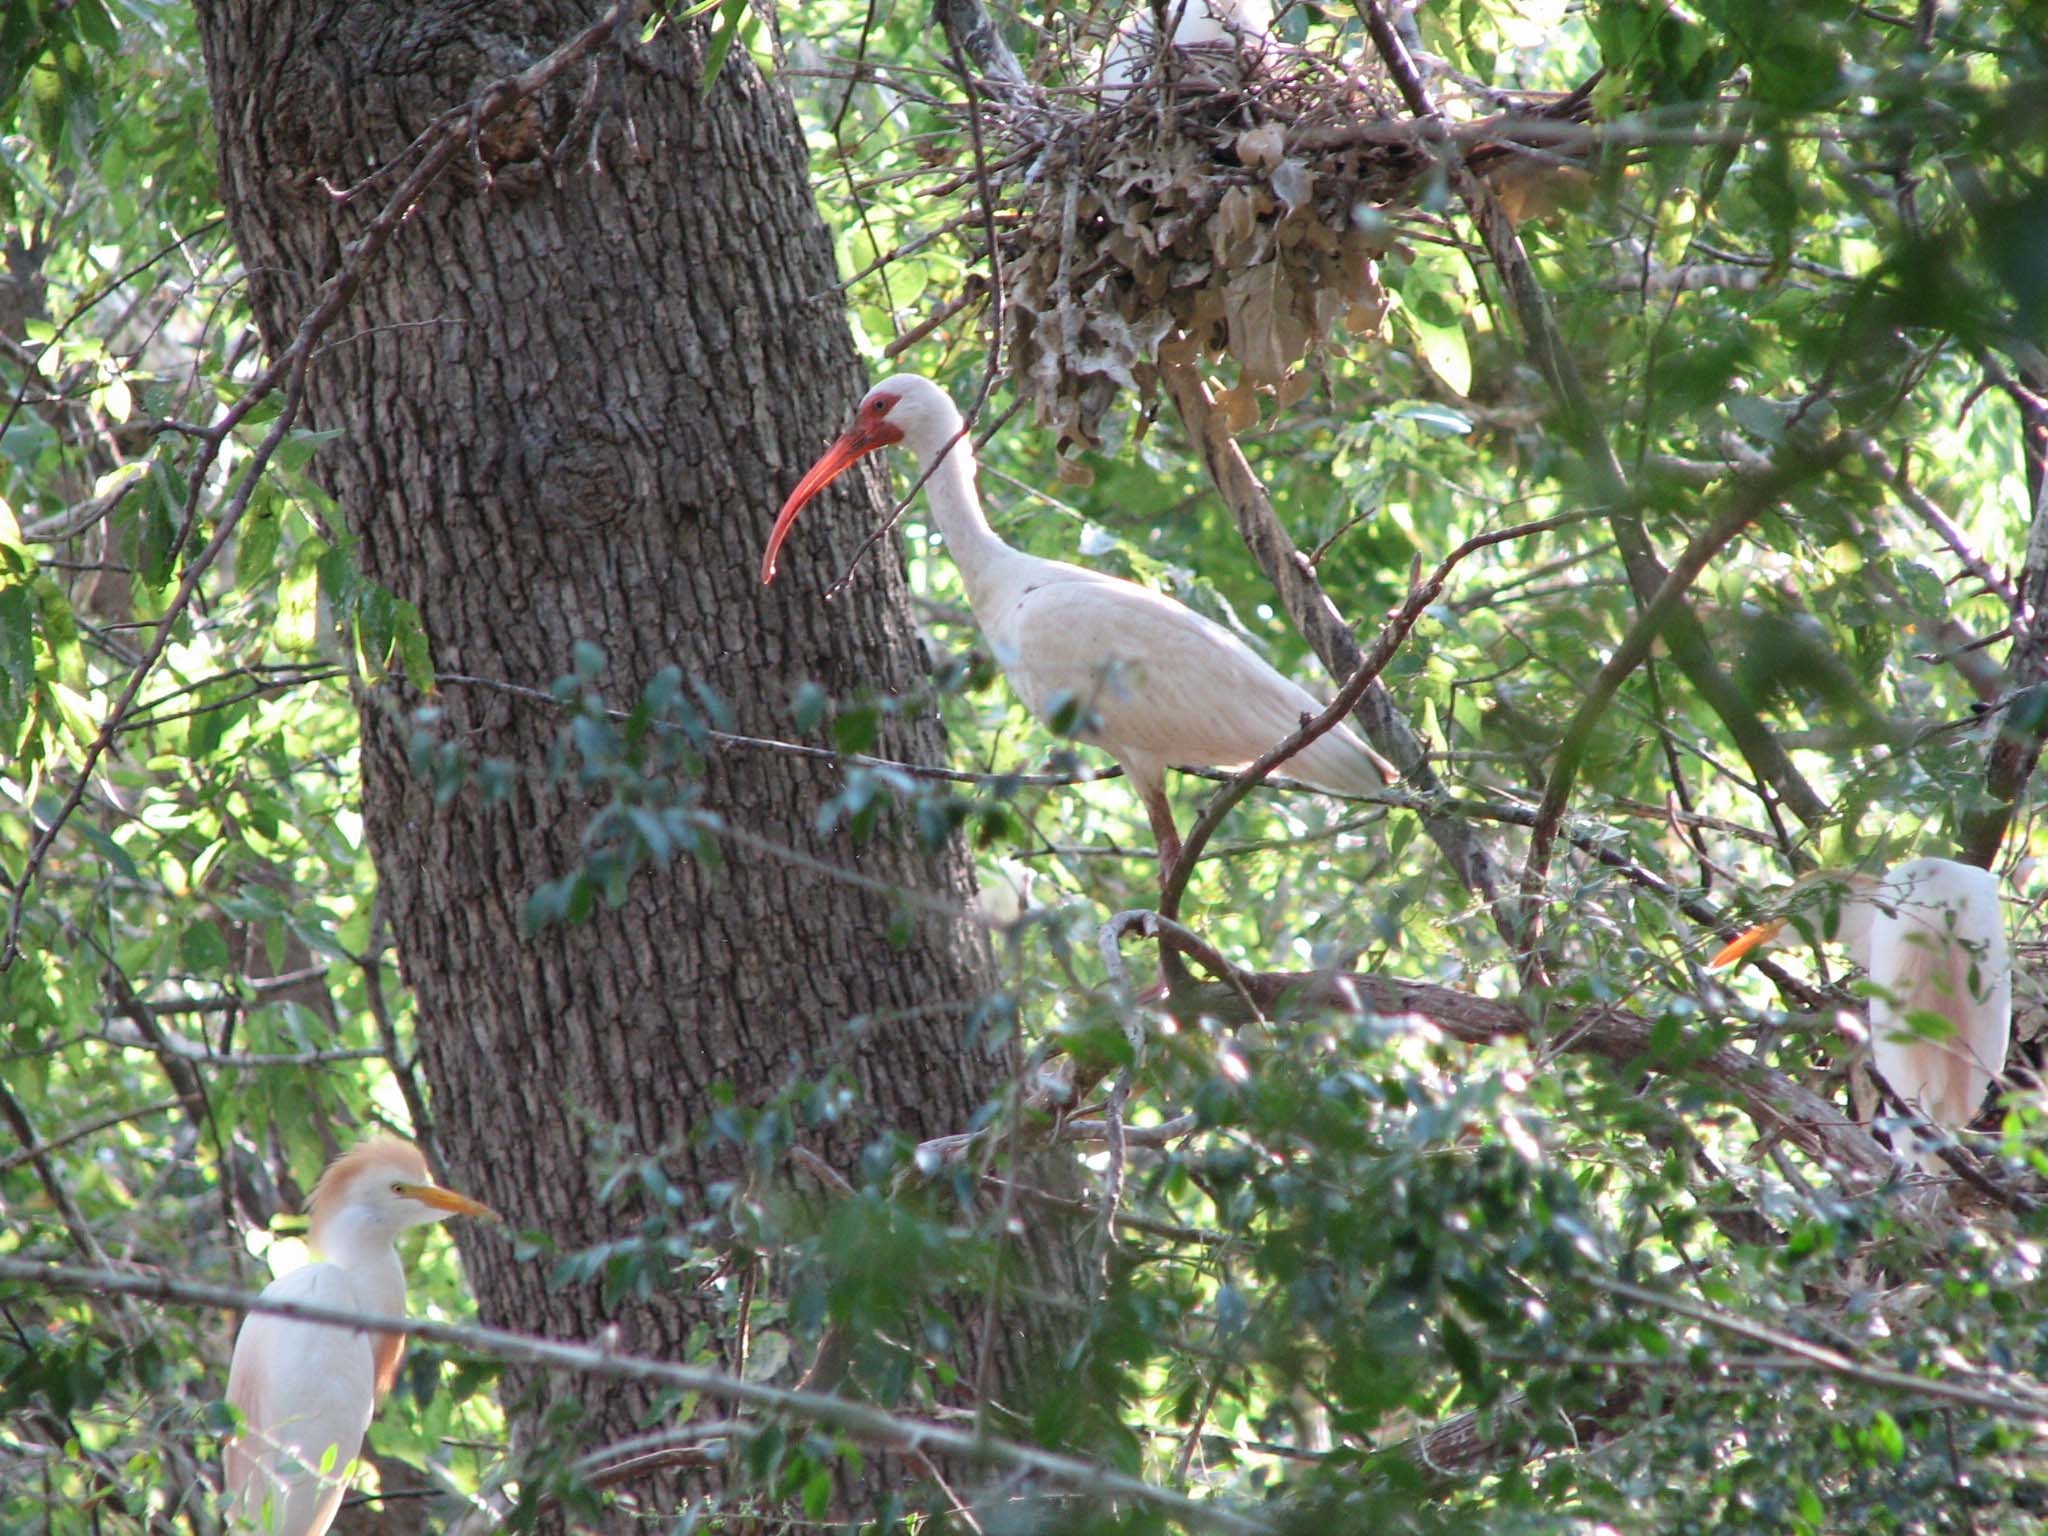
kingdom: Animalia
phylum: Chordata
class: Aves
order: Pelecaniformes
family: Threskiornithidae
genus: Eudocimus
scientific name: Eudocimus albus
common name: White ibis
